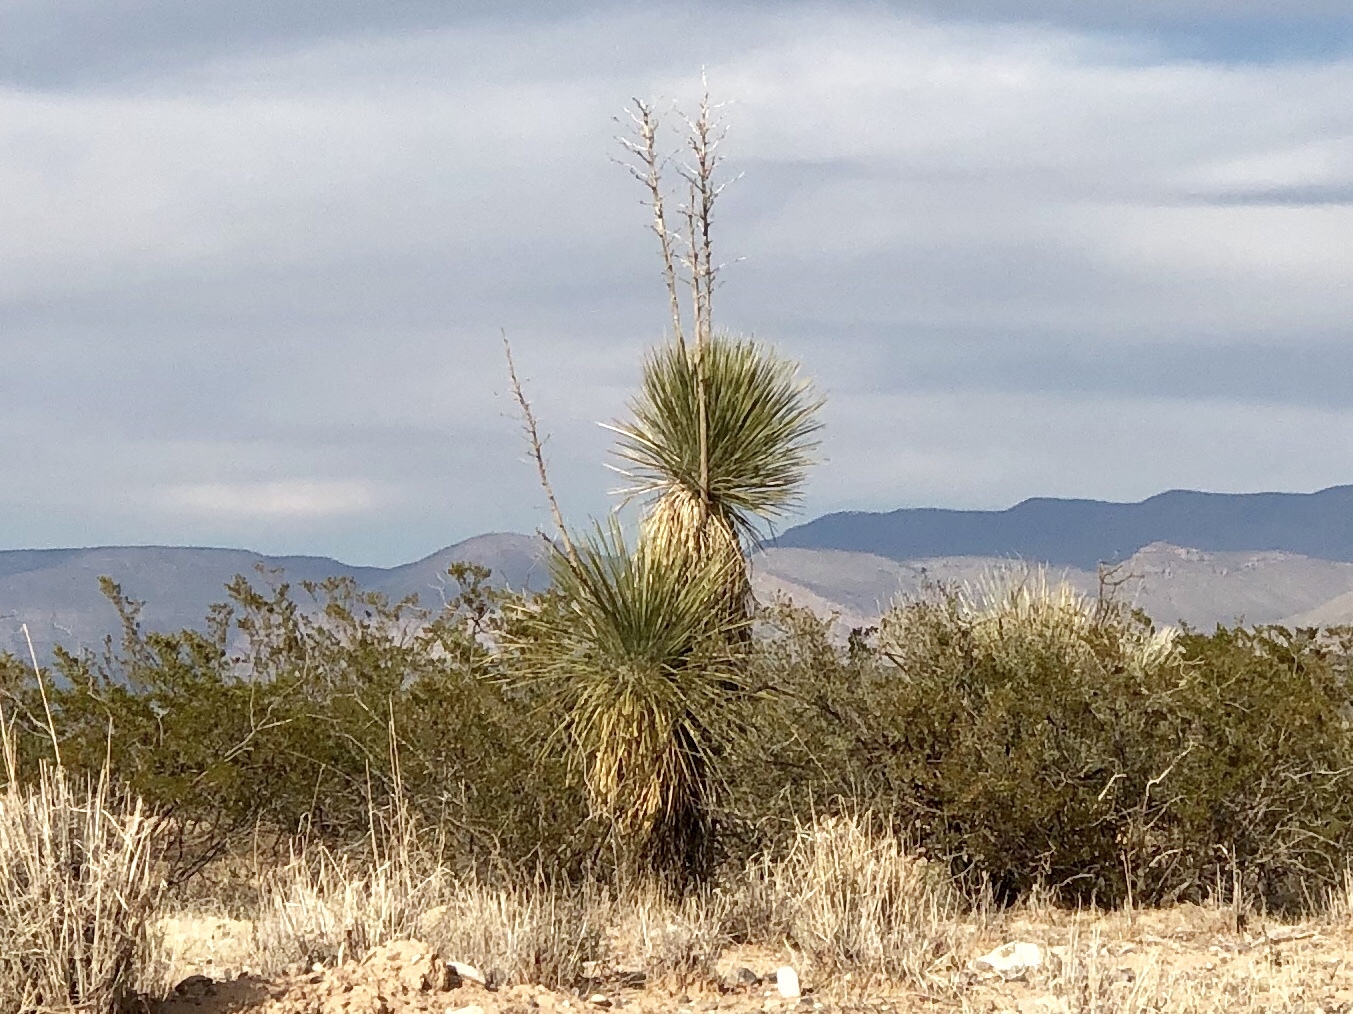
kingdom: Plantae
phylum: Tracheophyta
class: Liliopsida
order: Asparagales
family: Asparagaceae
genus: Yucca
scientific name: Yucca elata
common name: Palmella
